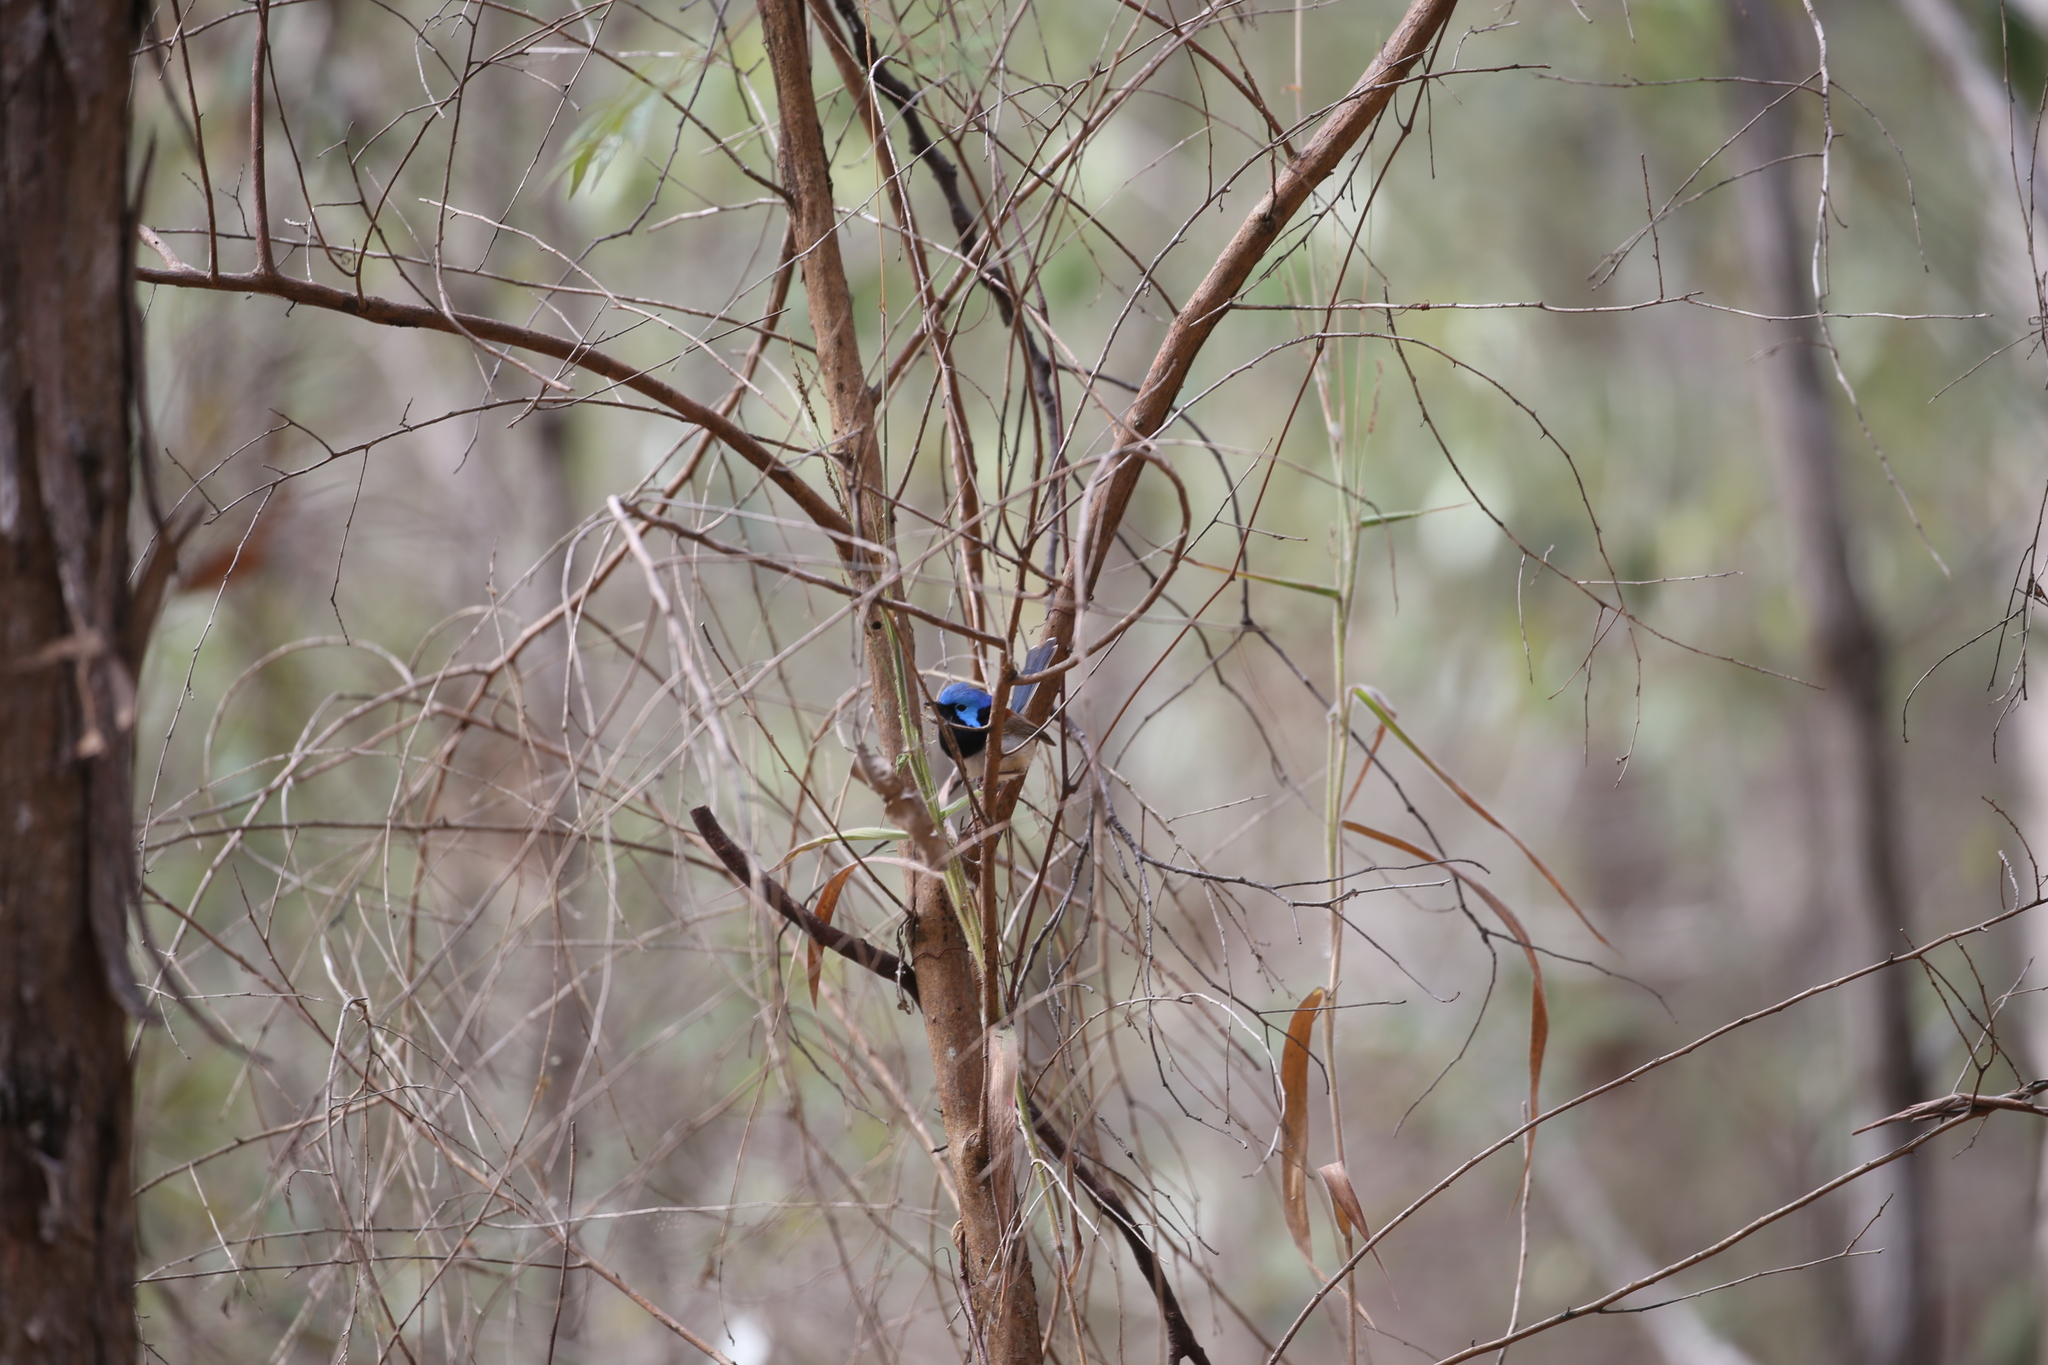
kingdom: Animalia
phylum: Chordata
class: Aves
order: Passeriformes
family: Maluridae
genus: Malurus
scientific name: Malurus lamberti
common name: Variegated fairywren
